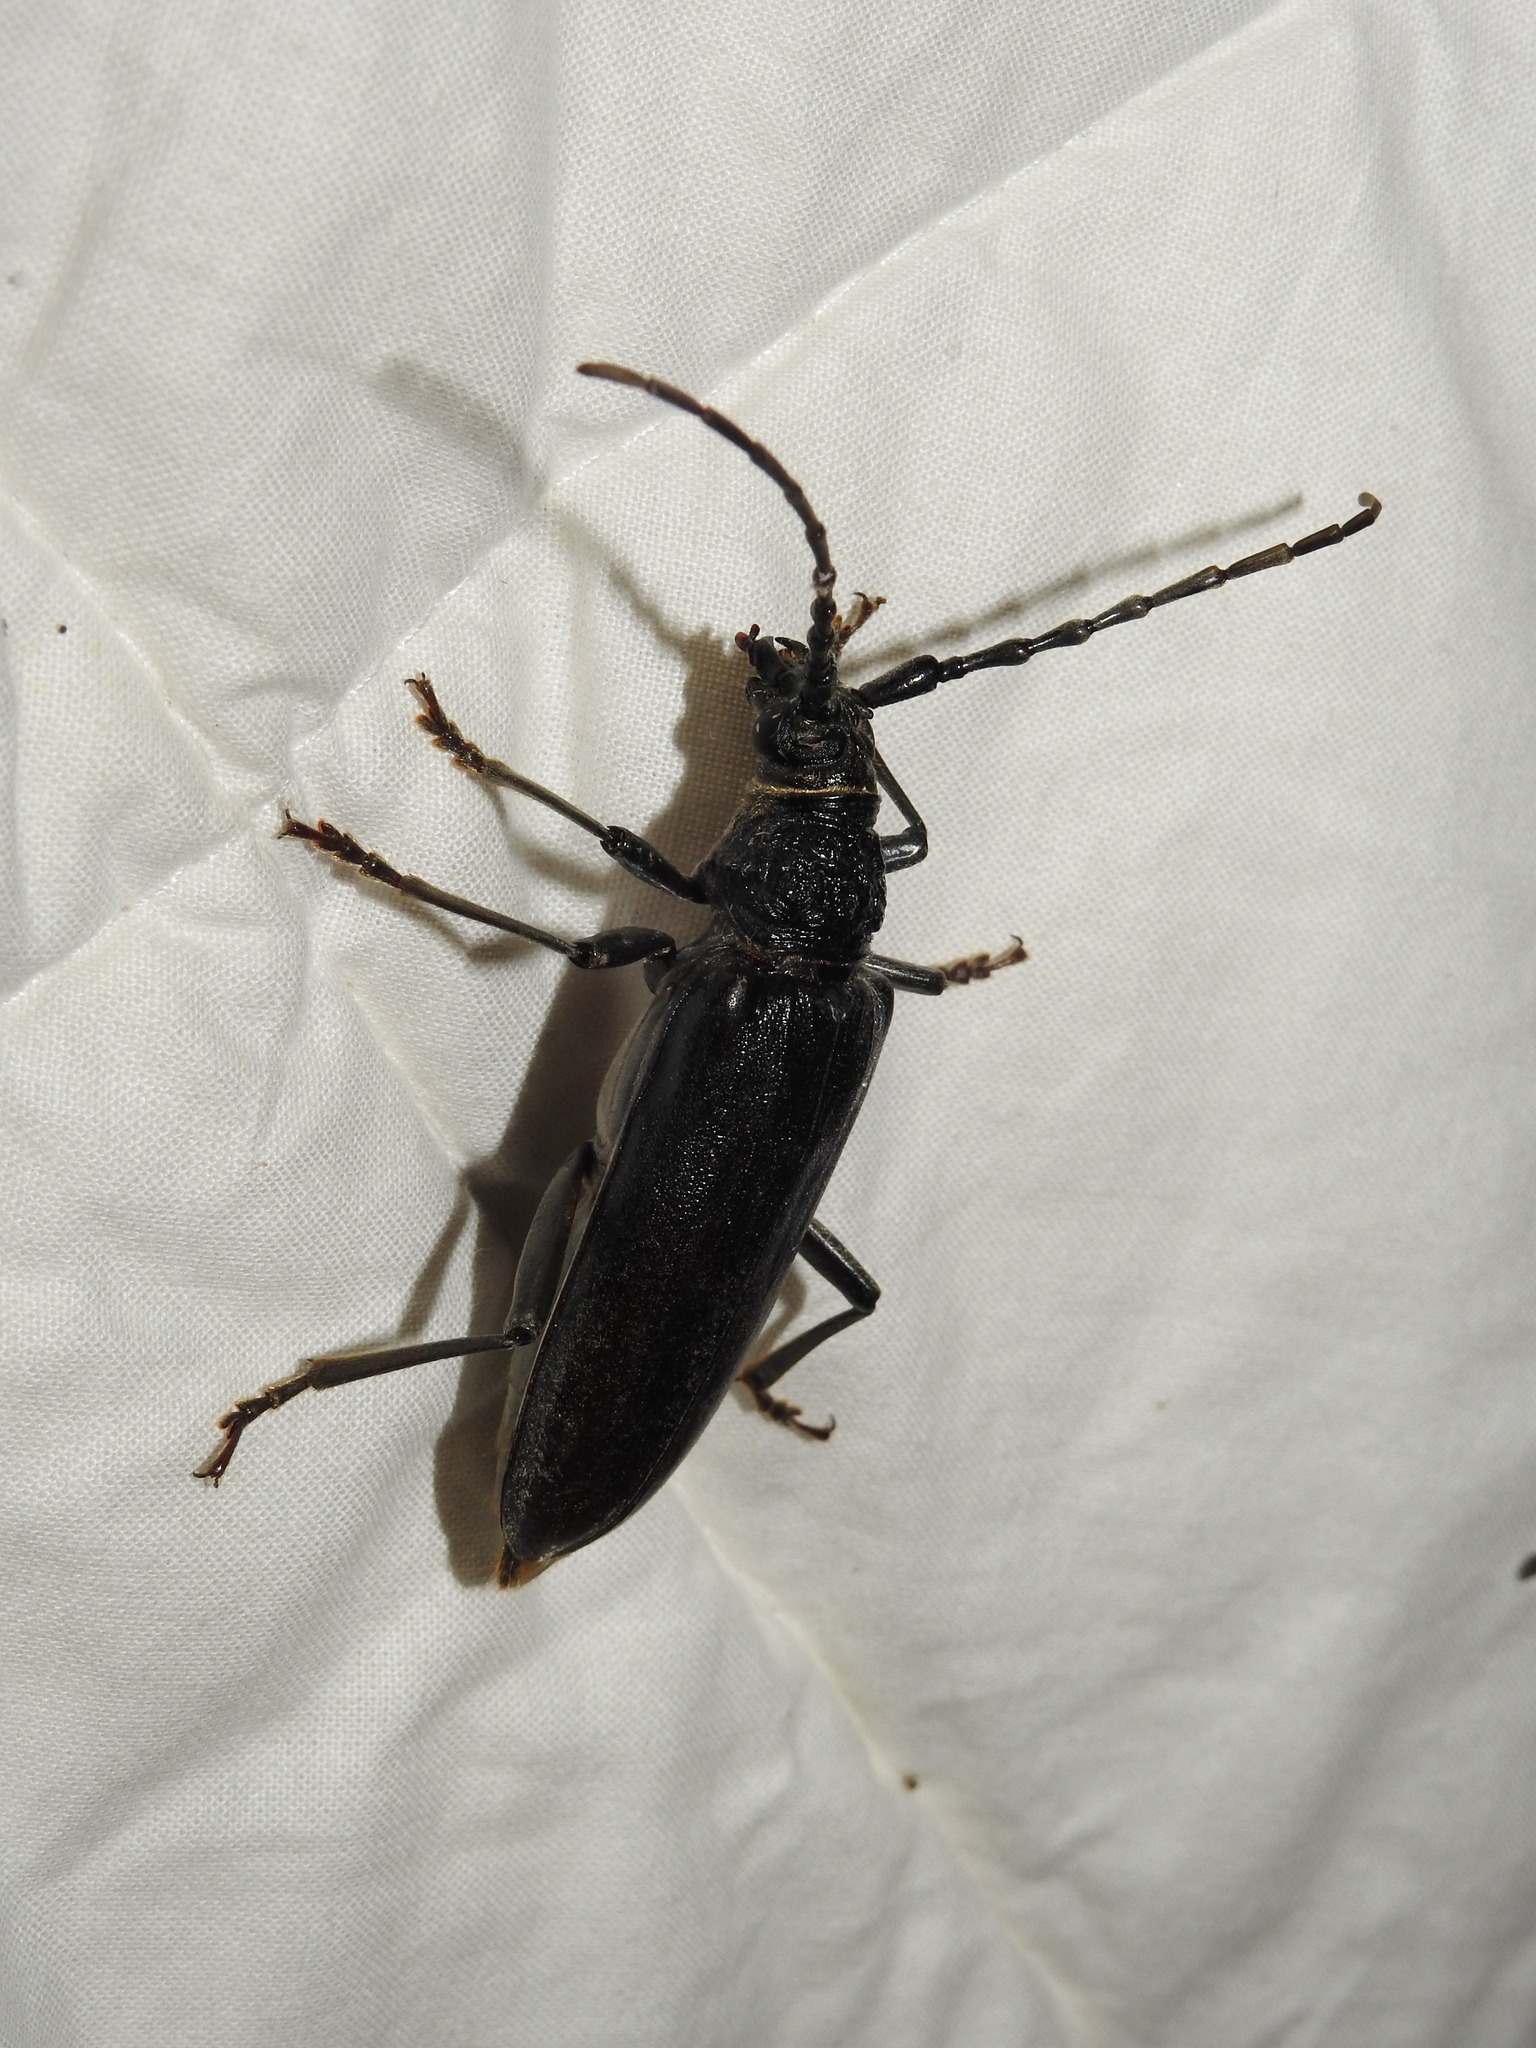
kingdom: Animalia
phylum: Arthropoda
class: Insecta
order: Coleoptera
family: Cerambycidae
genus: Cerambyx
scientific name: Cerambyx welensii
